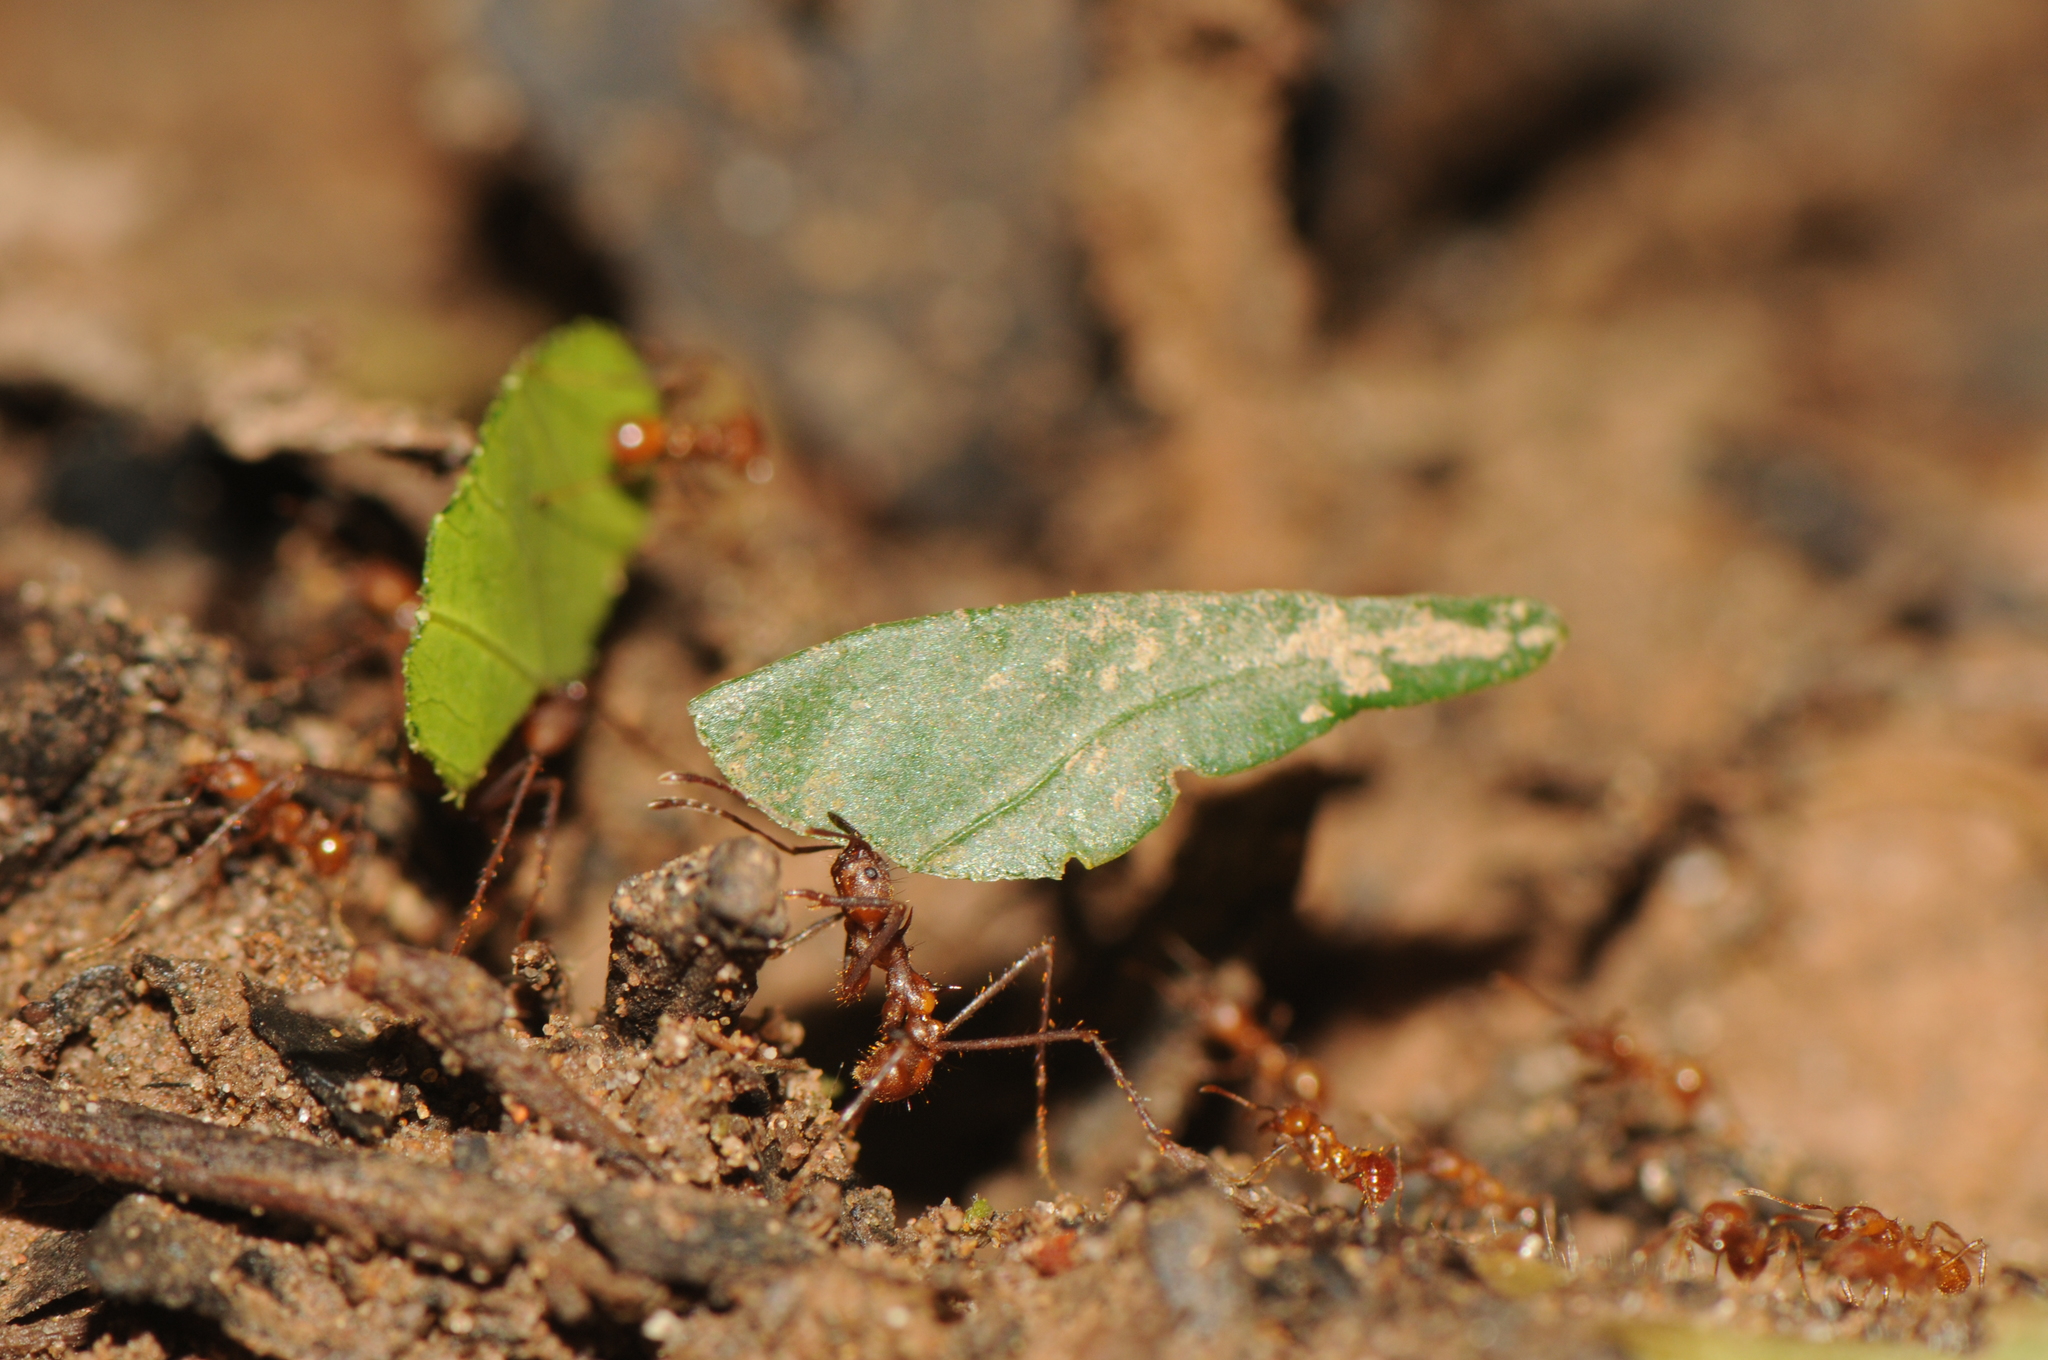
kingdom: Animalia
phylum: Arthropoda
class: Insecta
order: Hymenoptera
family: Formicidae
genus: Atta
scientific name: Atta cephalotes
